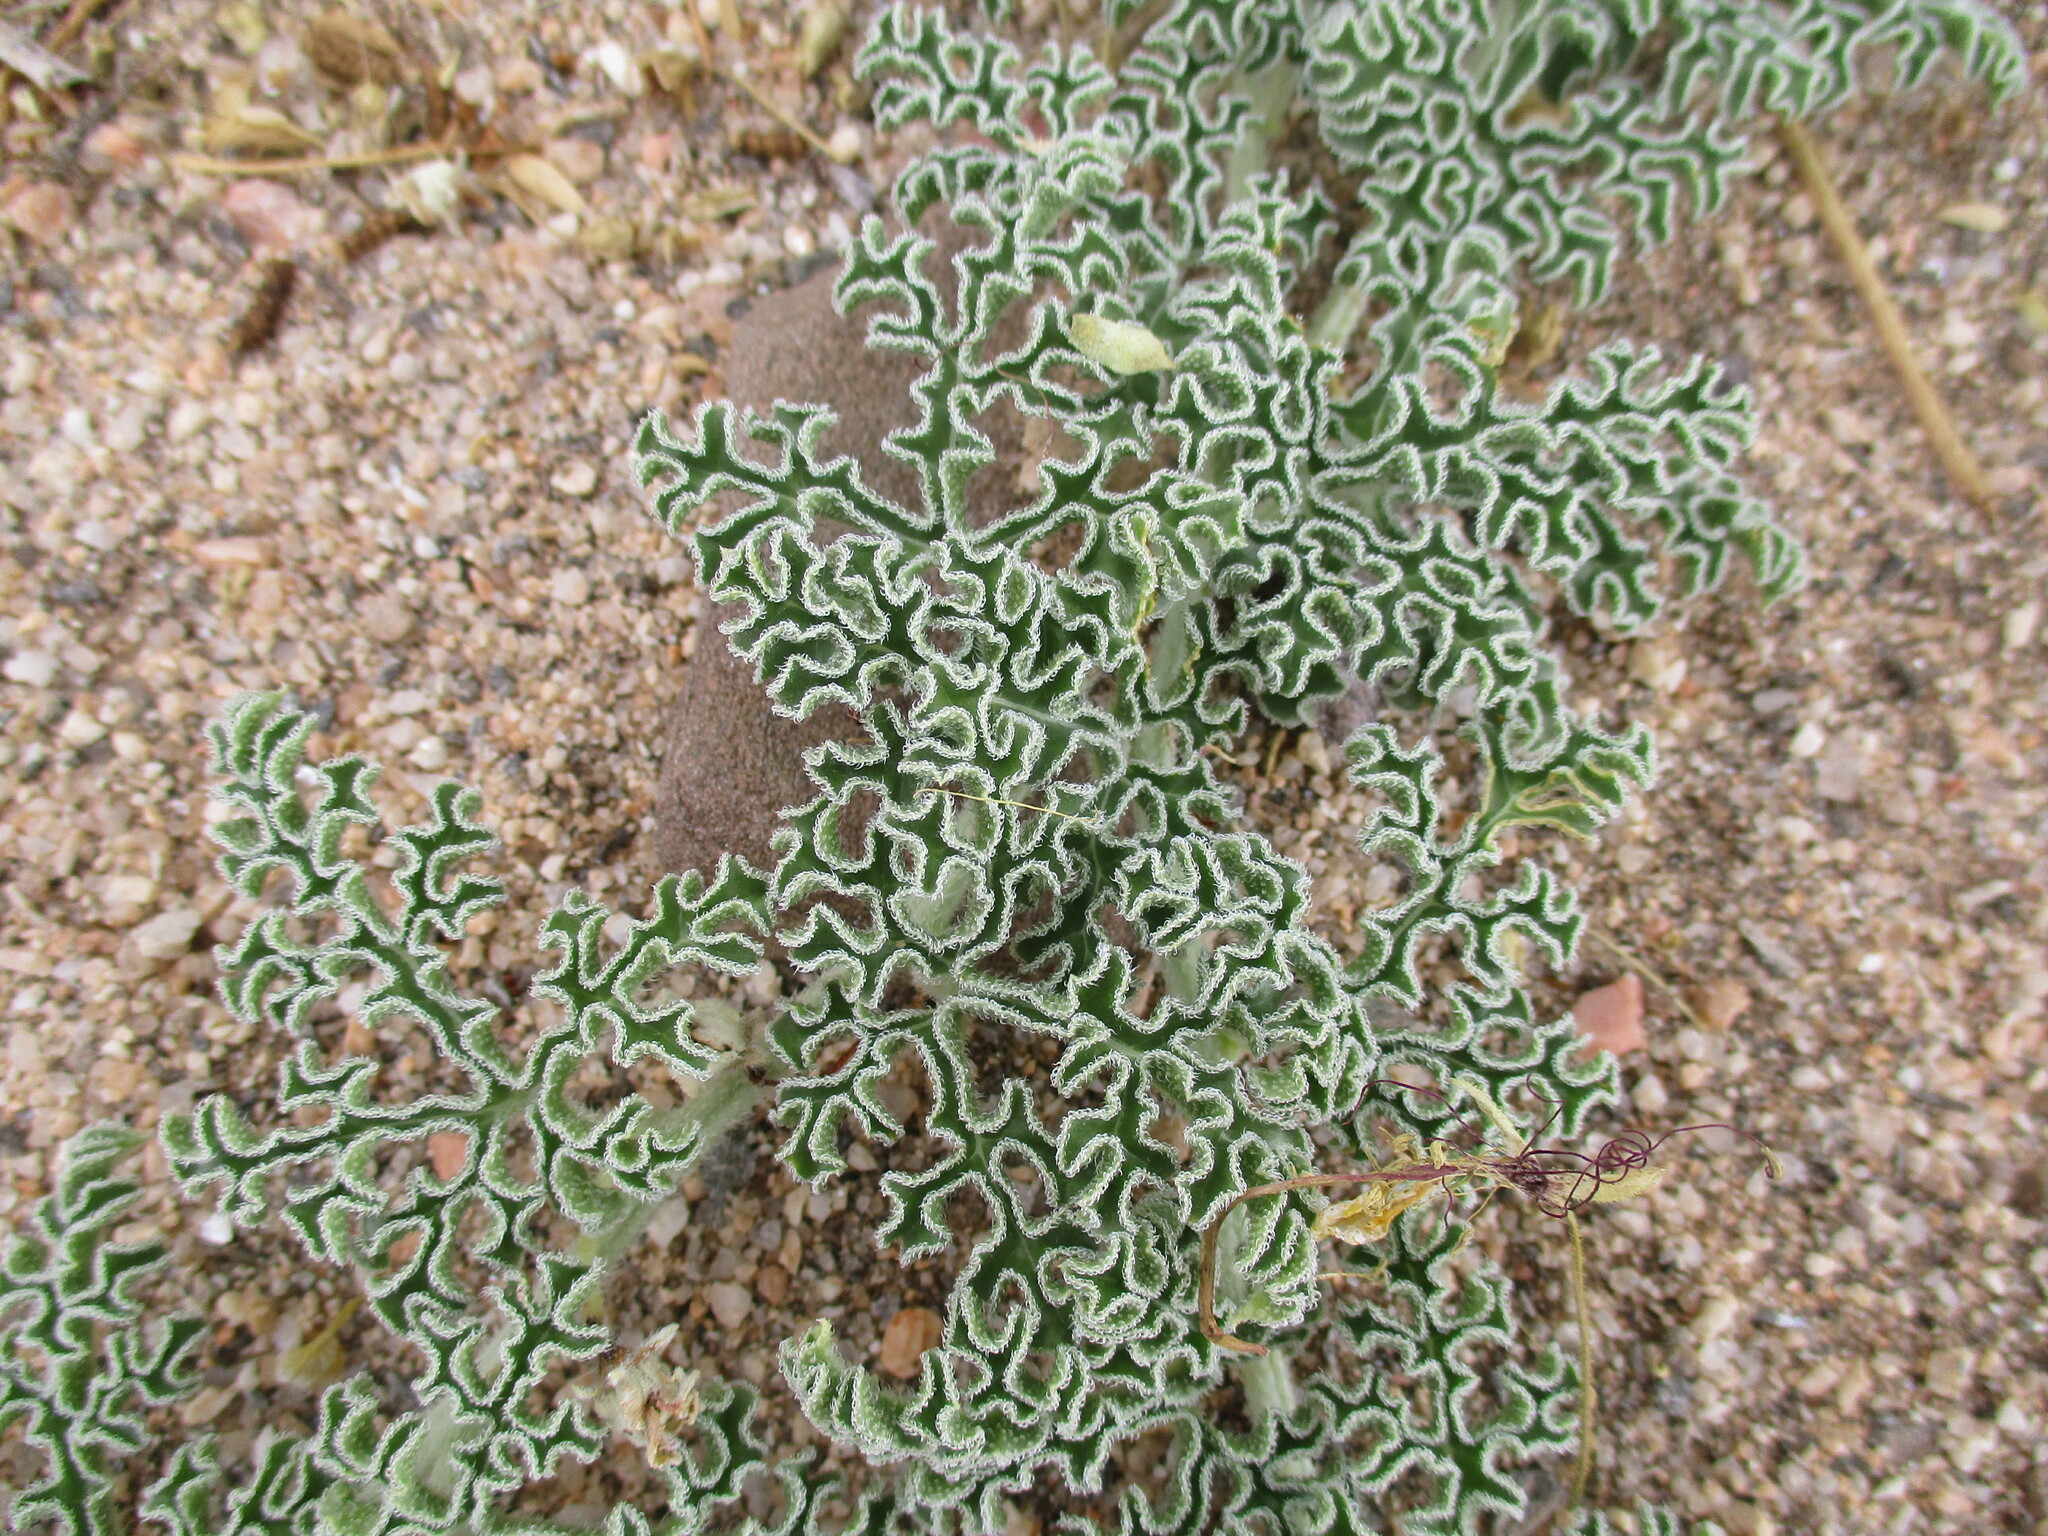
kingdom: Plantae
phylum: Tracheophyta
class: Magnoliopsida
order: Cucurbitales
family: Cucurbitaceae
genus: Citrullus
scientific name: Citrullus ecirrhosus
